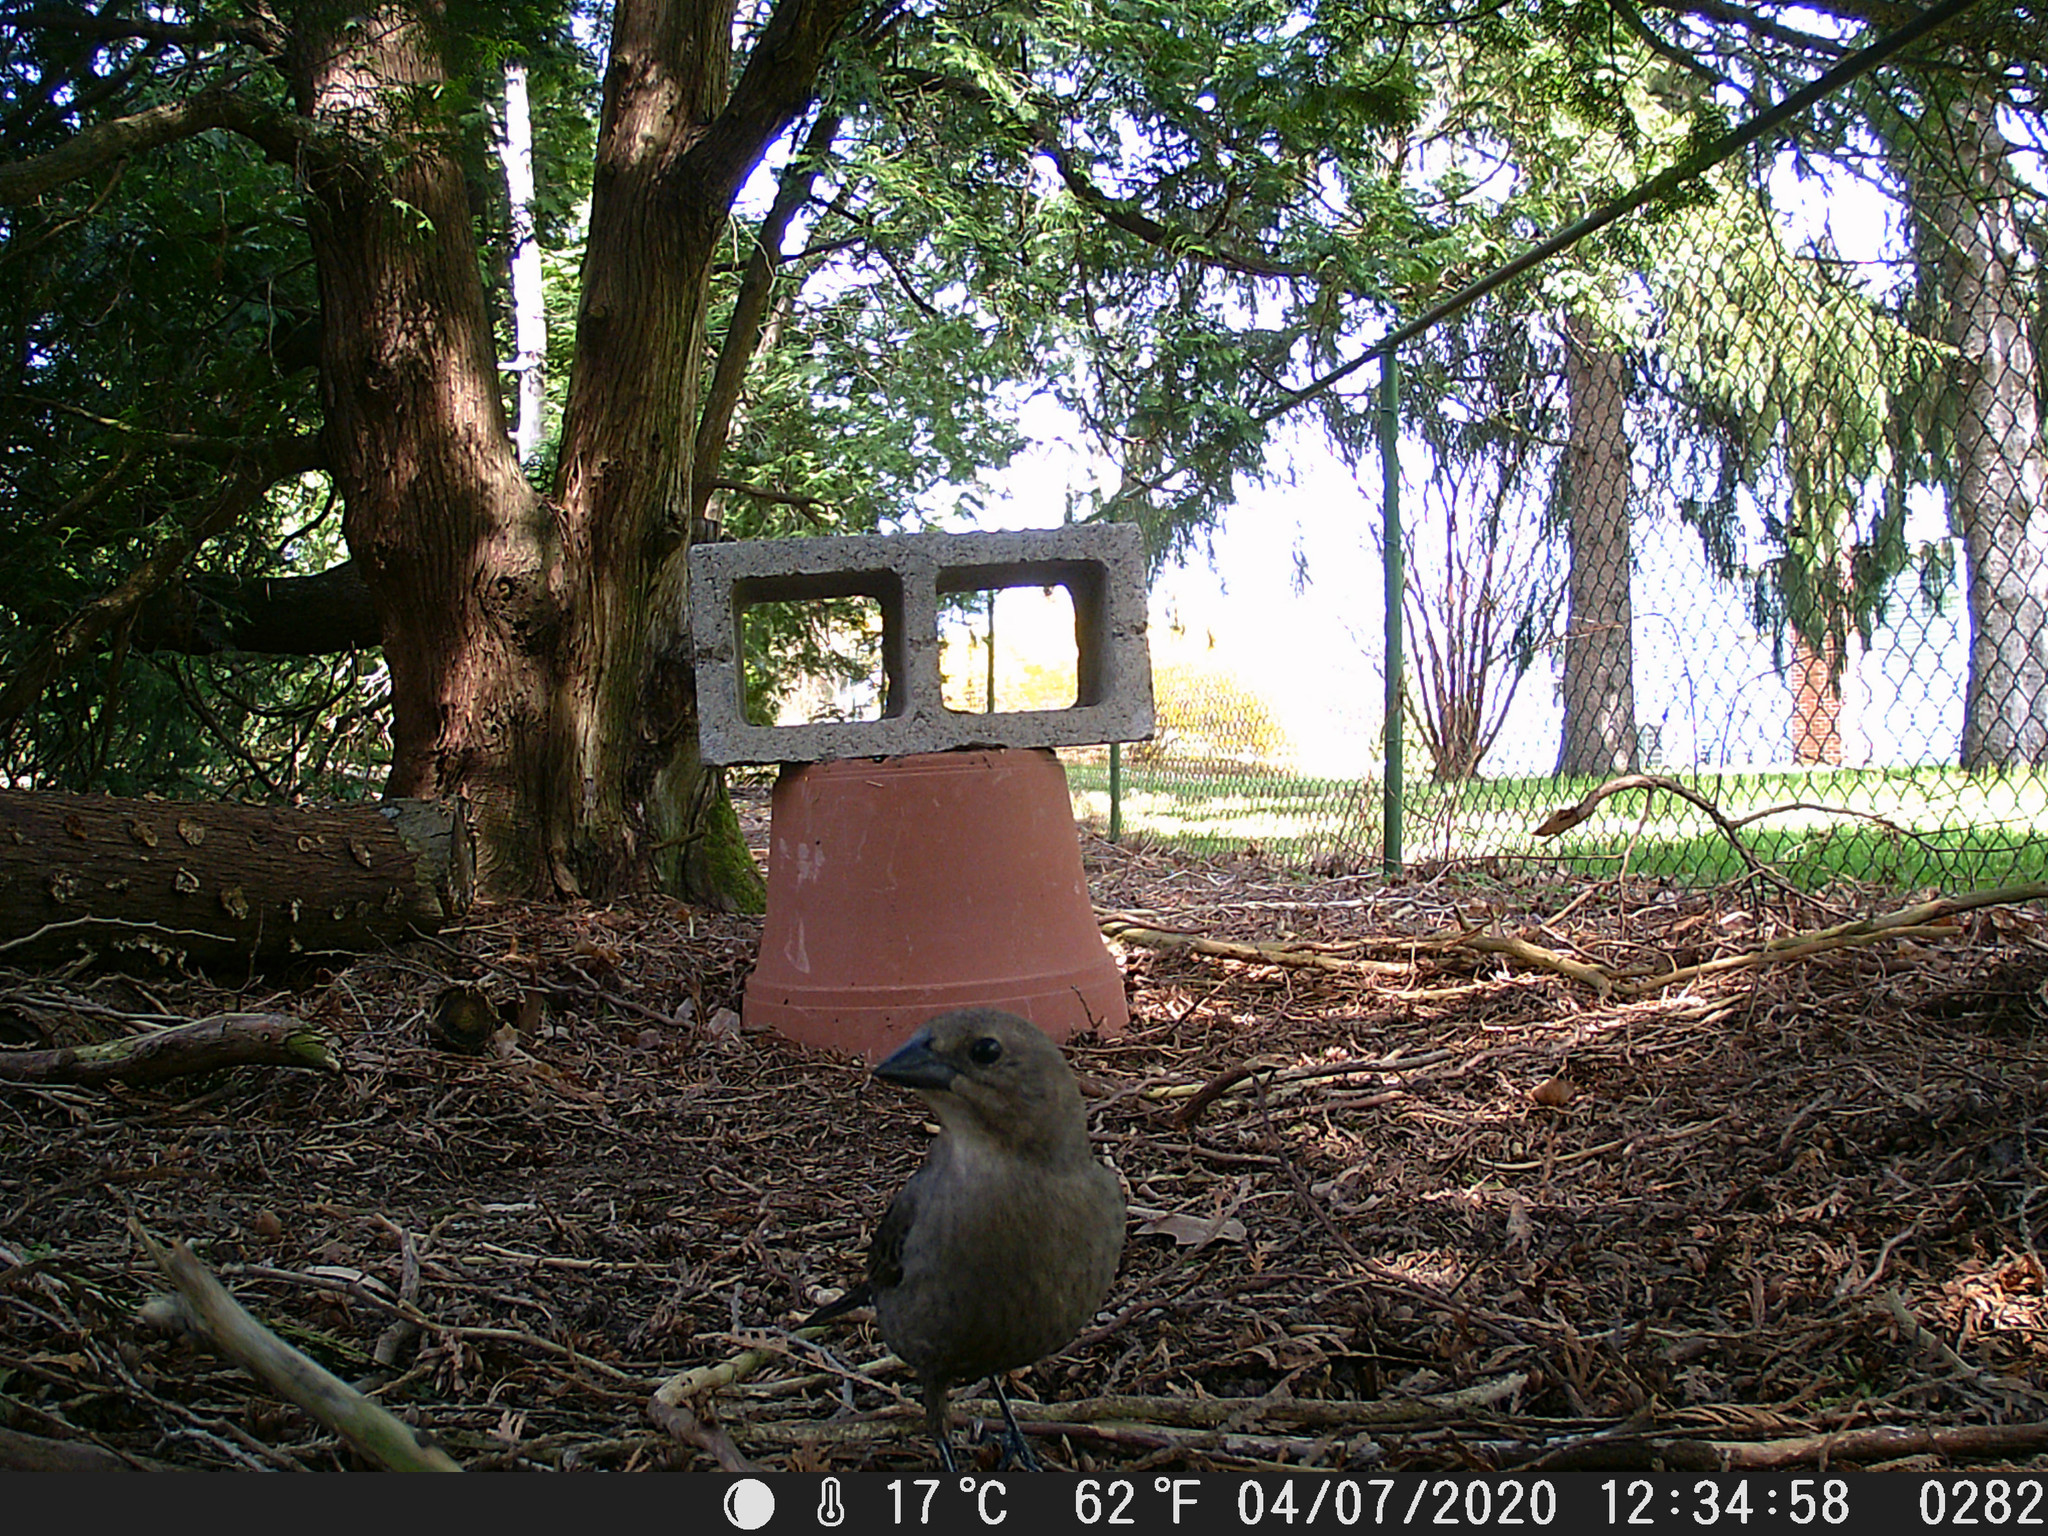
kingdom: Animalia
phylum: Chordata
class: Aves
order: Passeriformes
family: Icteridae
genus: Molothrus
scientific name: Molothrus ater
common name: Brown-headed cowbird
